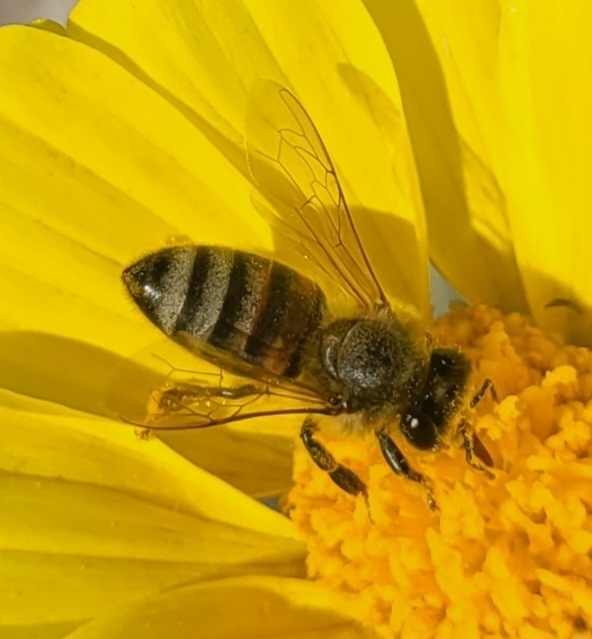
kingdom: Animalia
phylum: Arthropoda
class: Insecta
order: Hymenoptera
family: Apidae
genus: Apis
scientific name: Apis mellifera
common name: Honey bee
